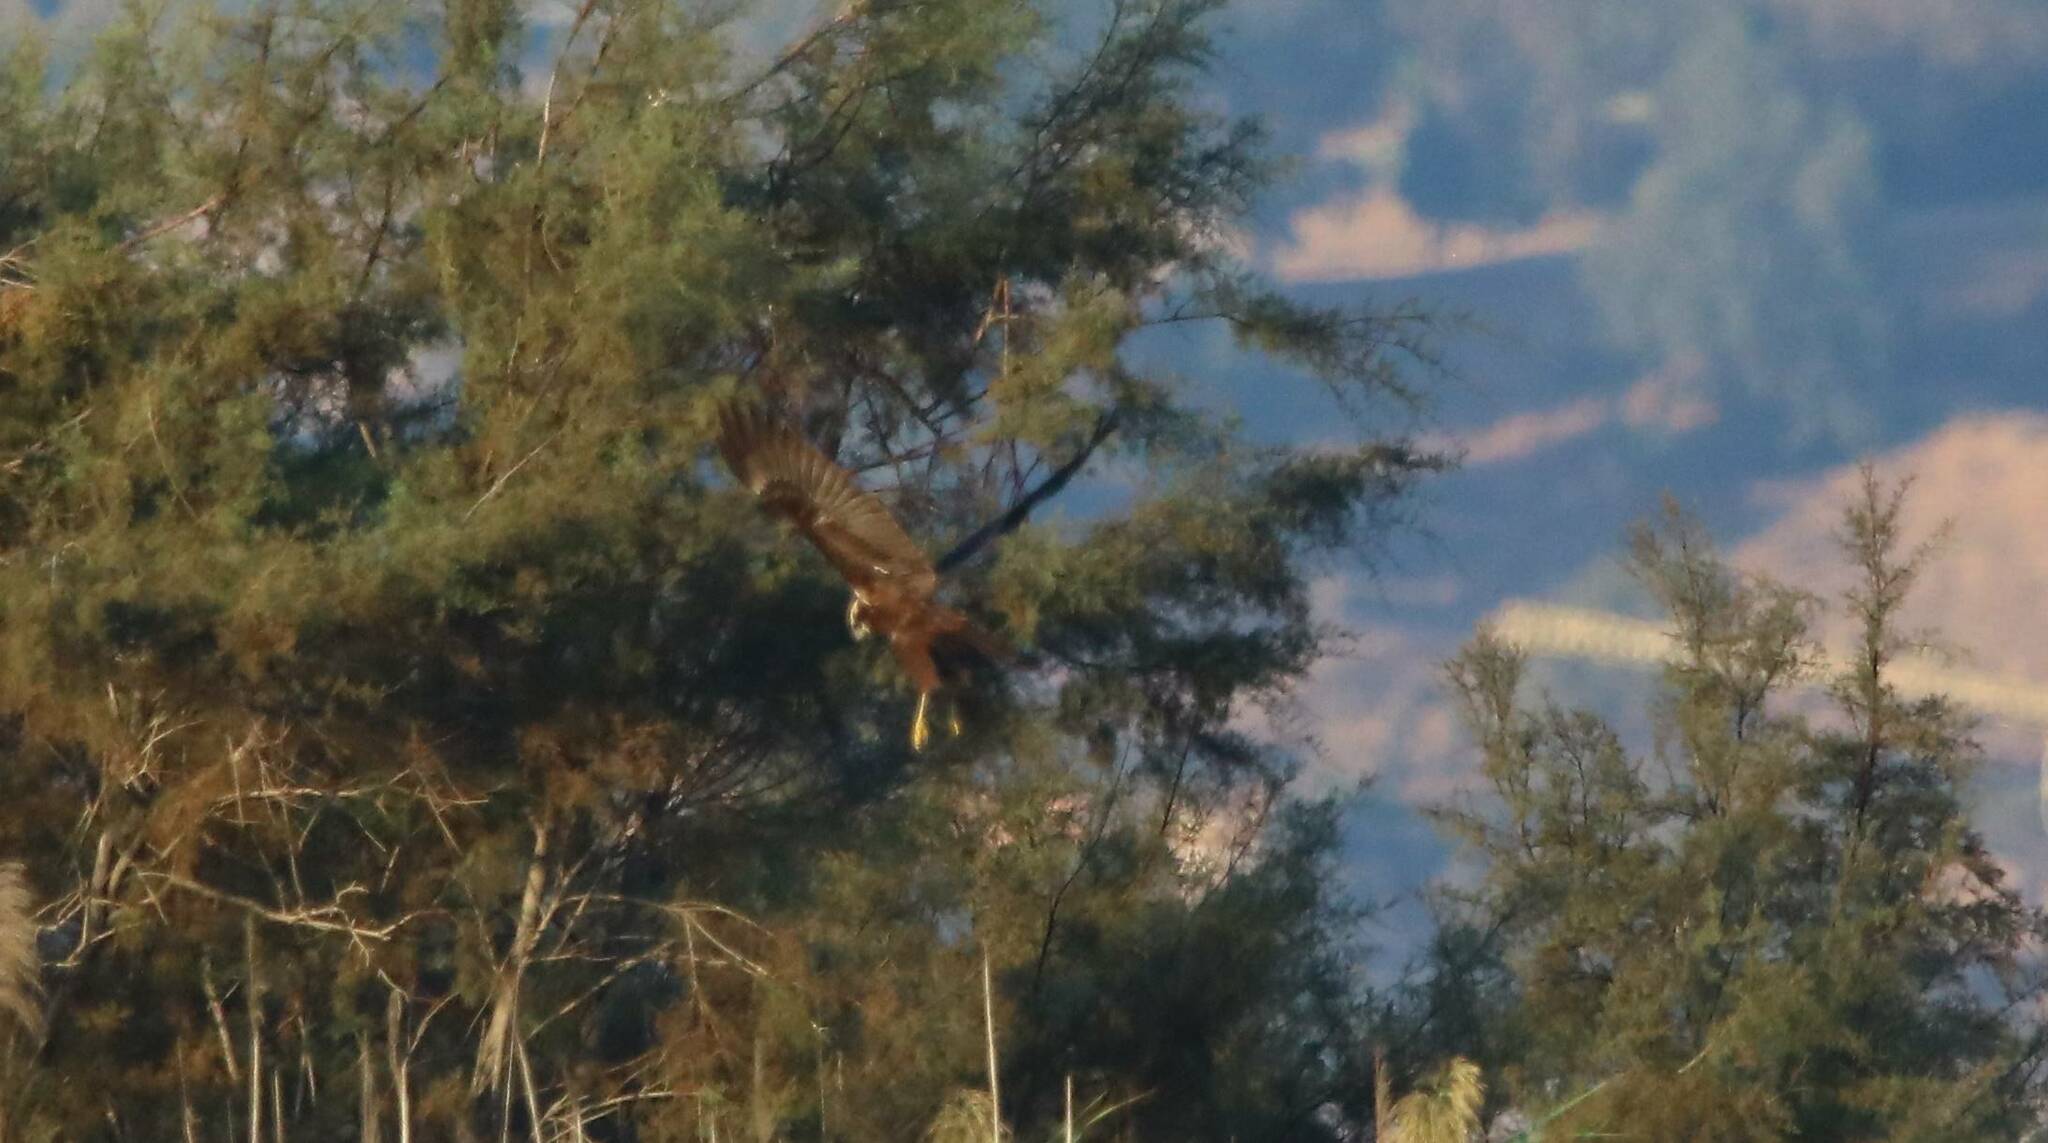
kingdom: Animalia
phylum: Chordata
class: Aves
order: Accipitriformes
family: Accipitridae
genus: Circus
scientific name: Circus aeruginosus
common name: Western marsh harrier
